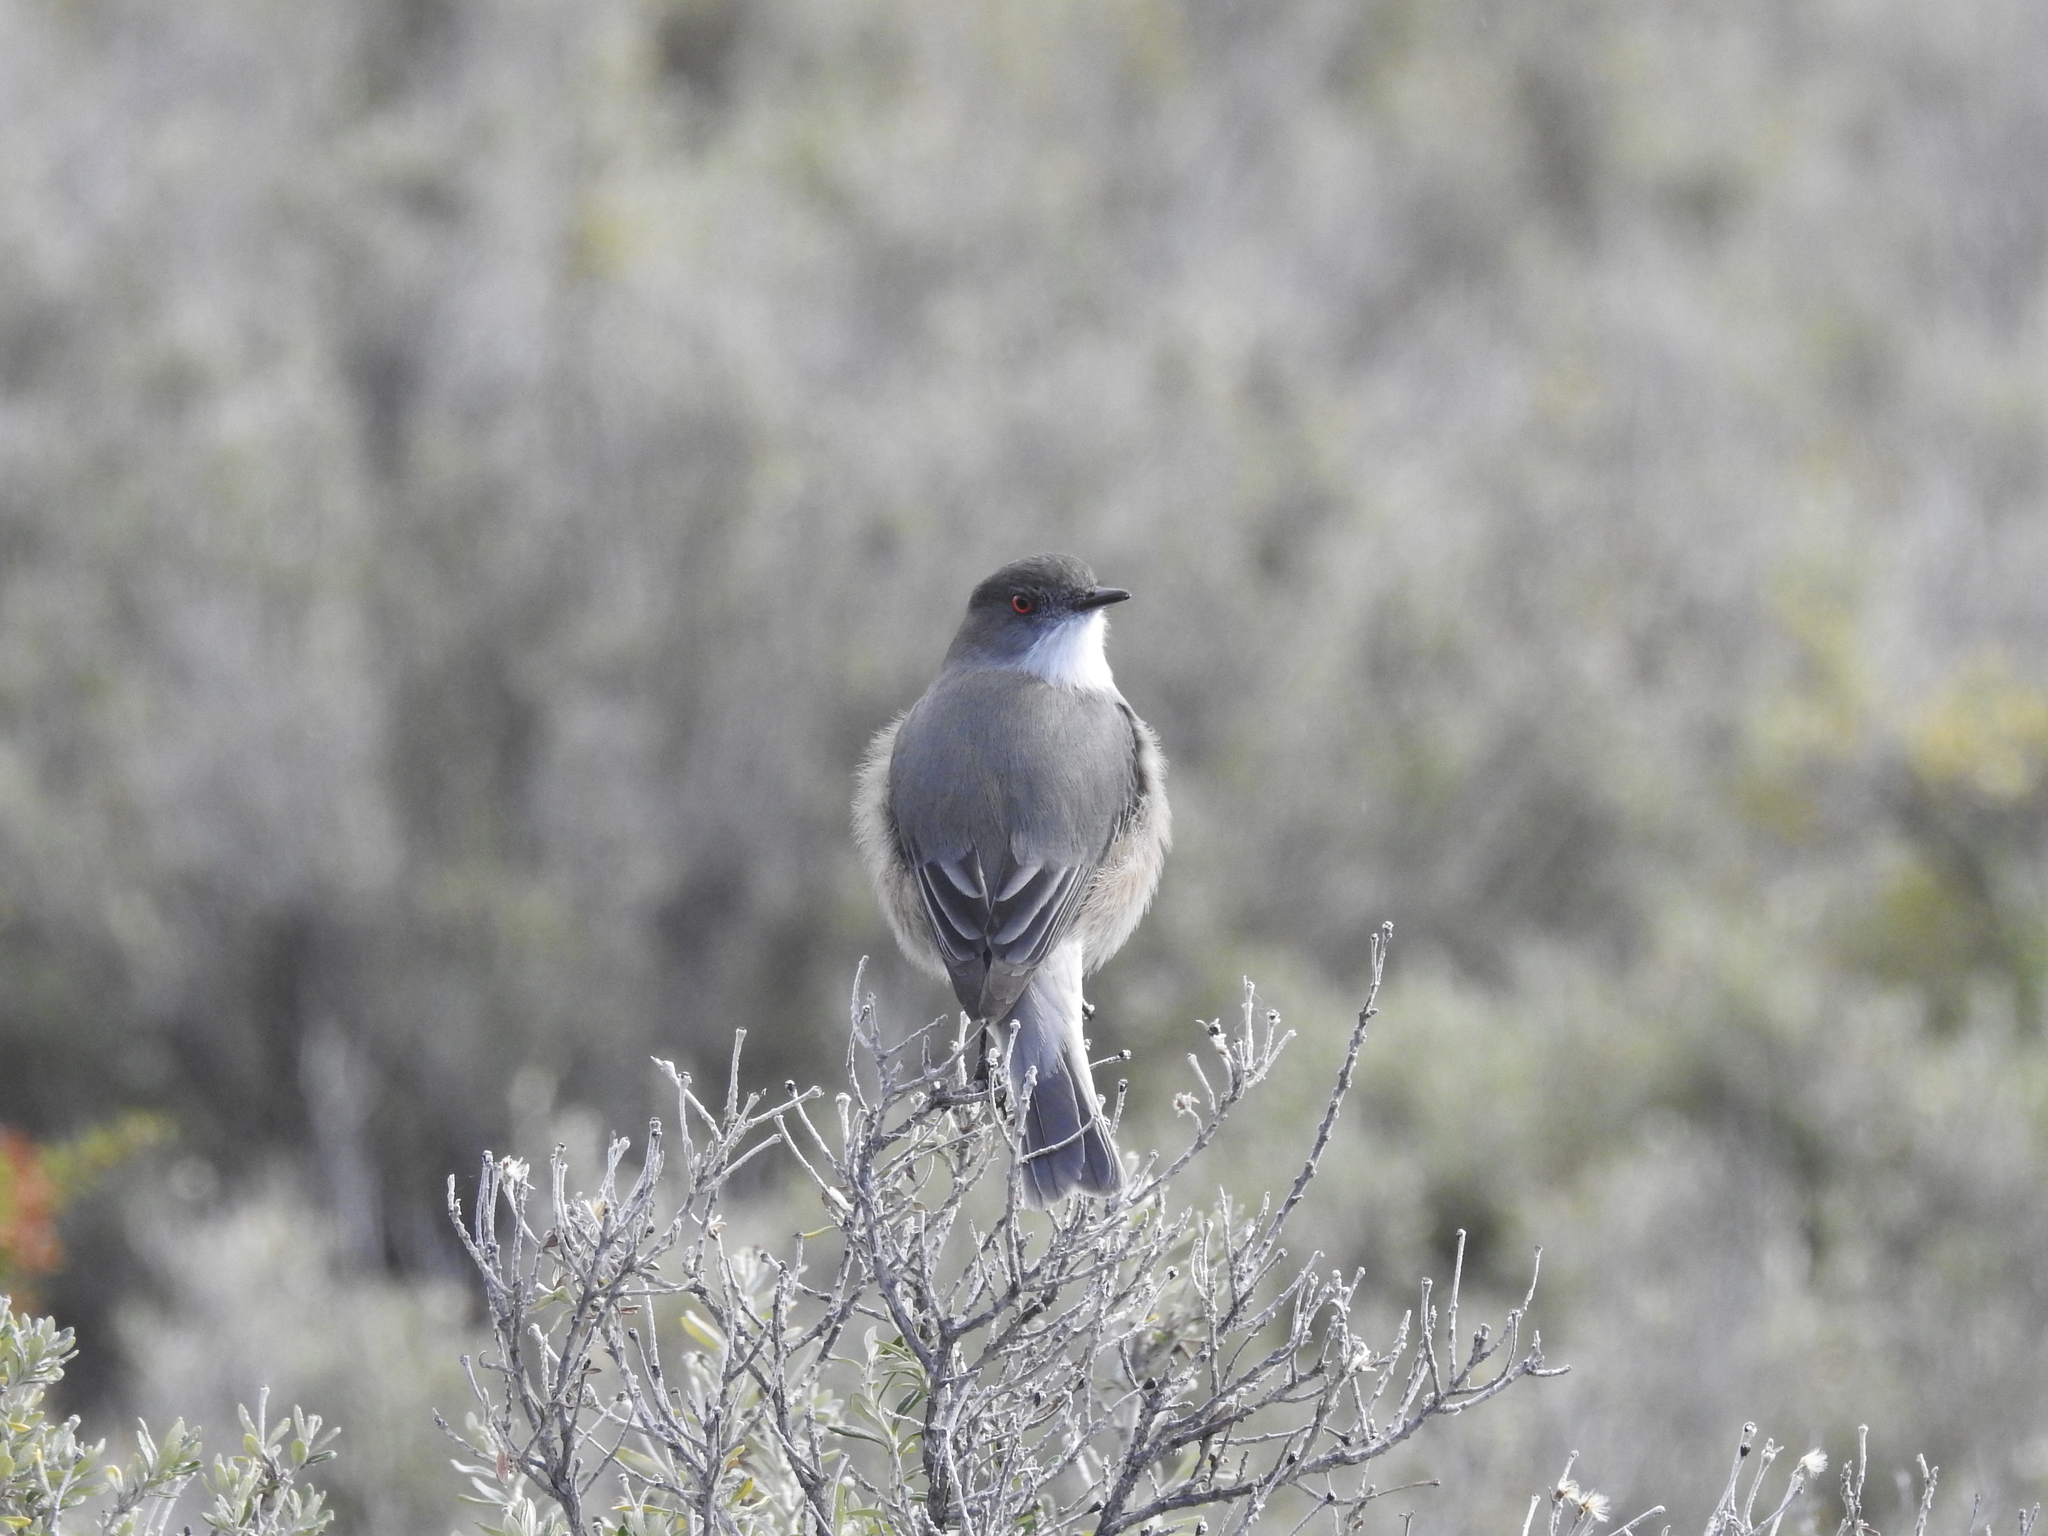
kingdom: Animalia
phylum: Chordata
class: Aves
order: Passeriformes
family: Tyrannidae
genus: Xolmis
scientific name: Xolmis pyrope
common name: Fire-eyed diucon
